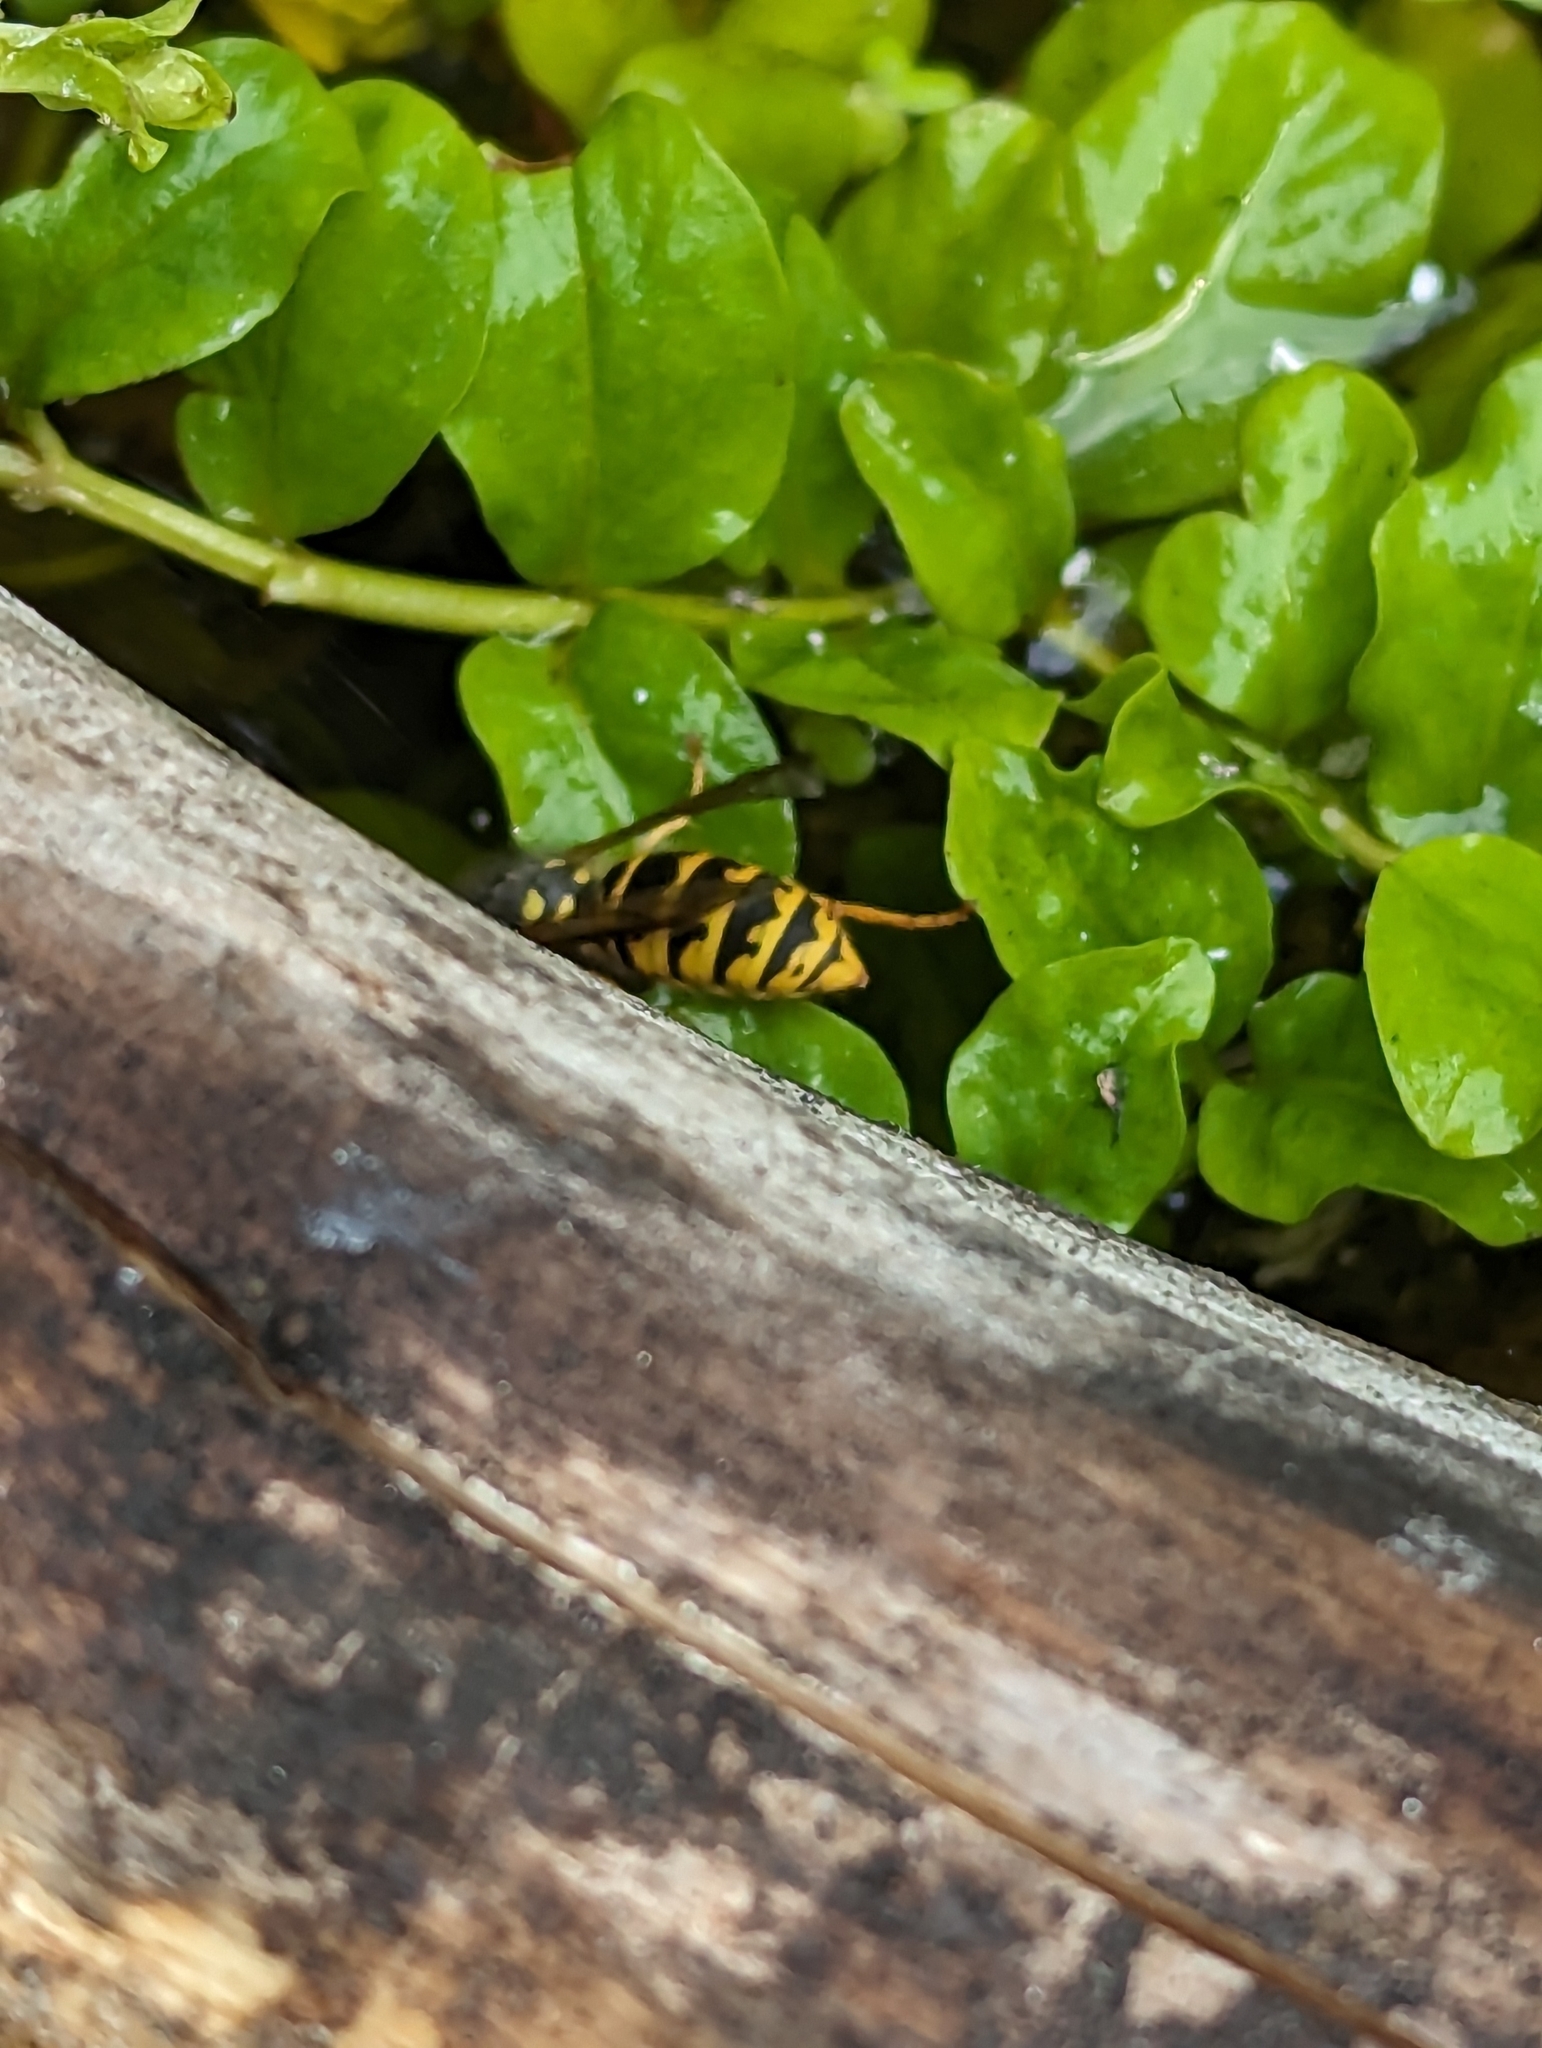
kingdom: Animalia
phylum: Arthropoda
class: Insecta
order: Hymenoptera
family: Vespidae
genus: Vespula
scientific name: Vespula germanica
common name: German wasp
